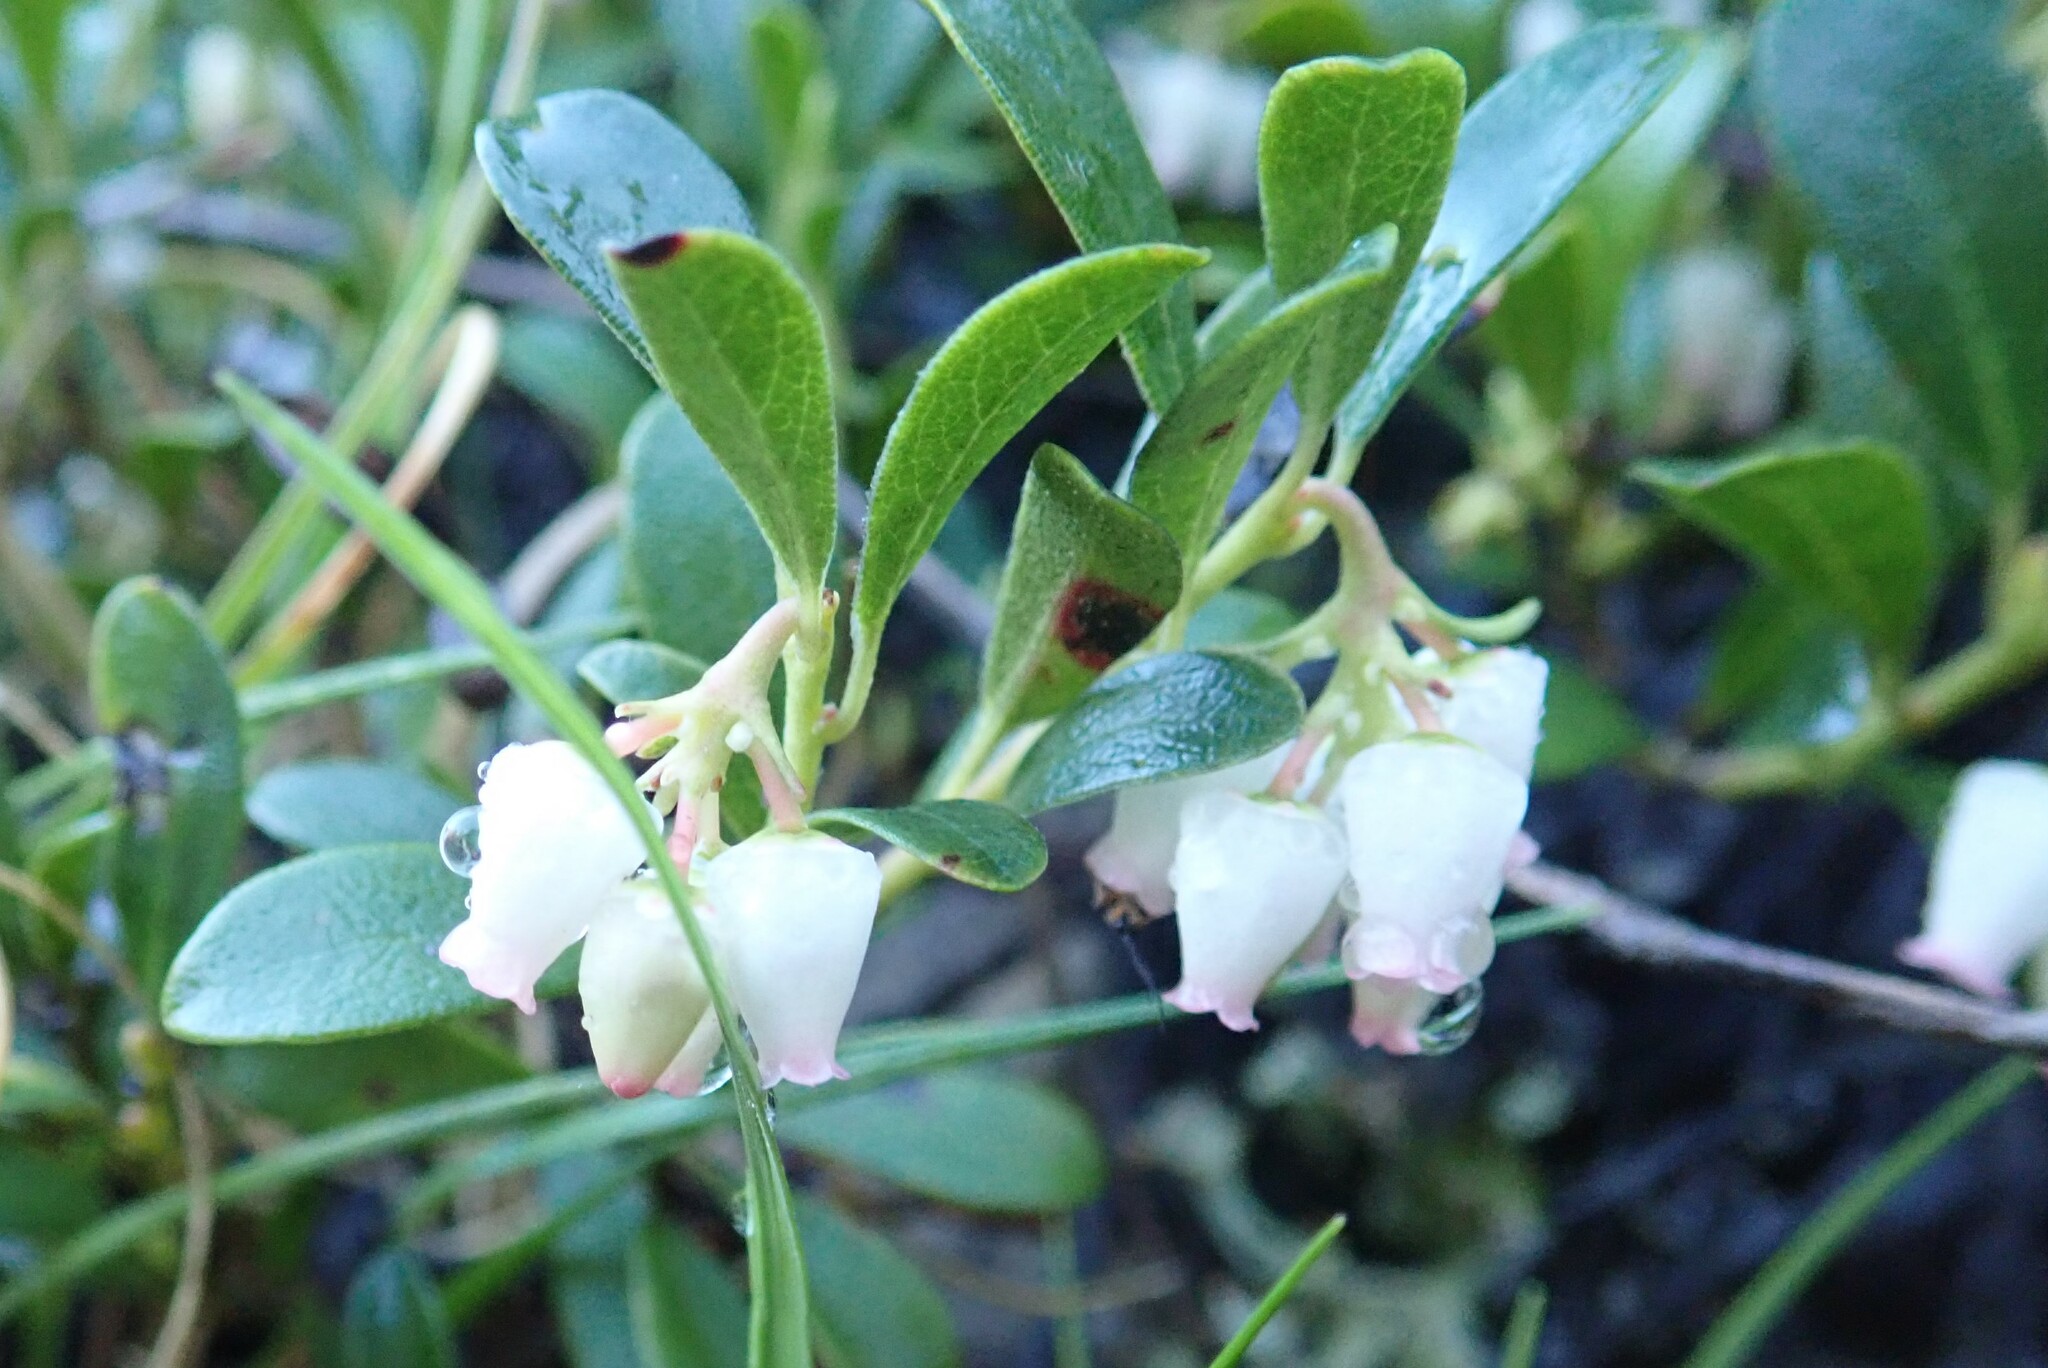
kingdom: Plantae
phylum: Tracheophyta
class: Magnoliopsida
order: Ericales
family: Ericaceae
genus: Arctostaphylos
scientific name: Arctostaphylos uva-ursi
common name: Bearberry
